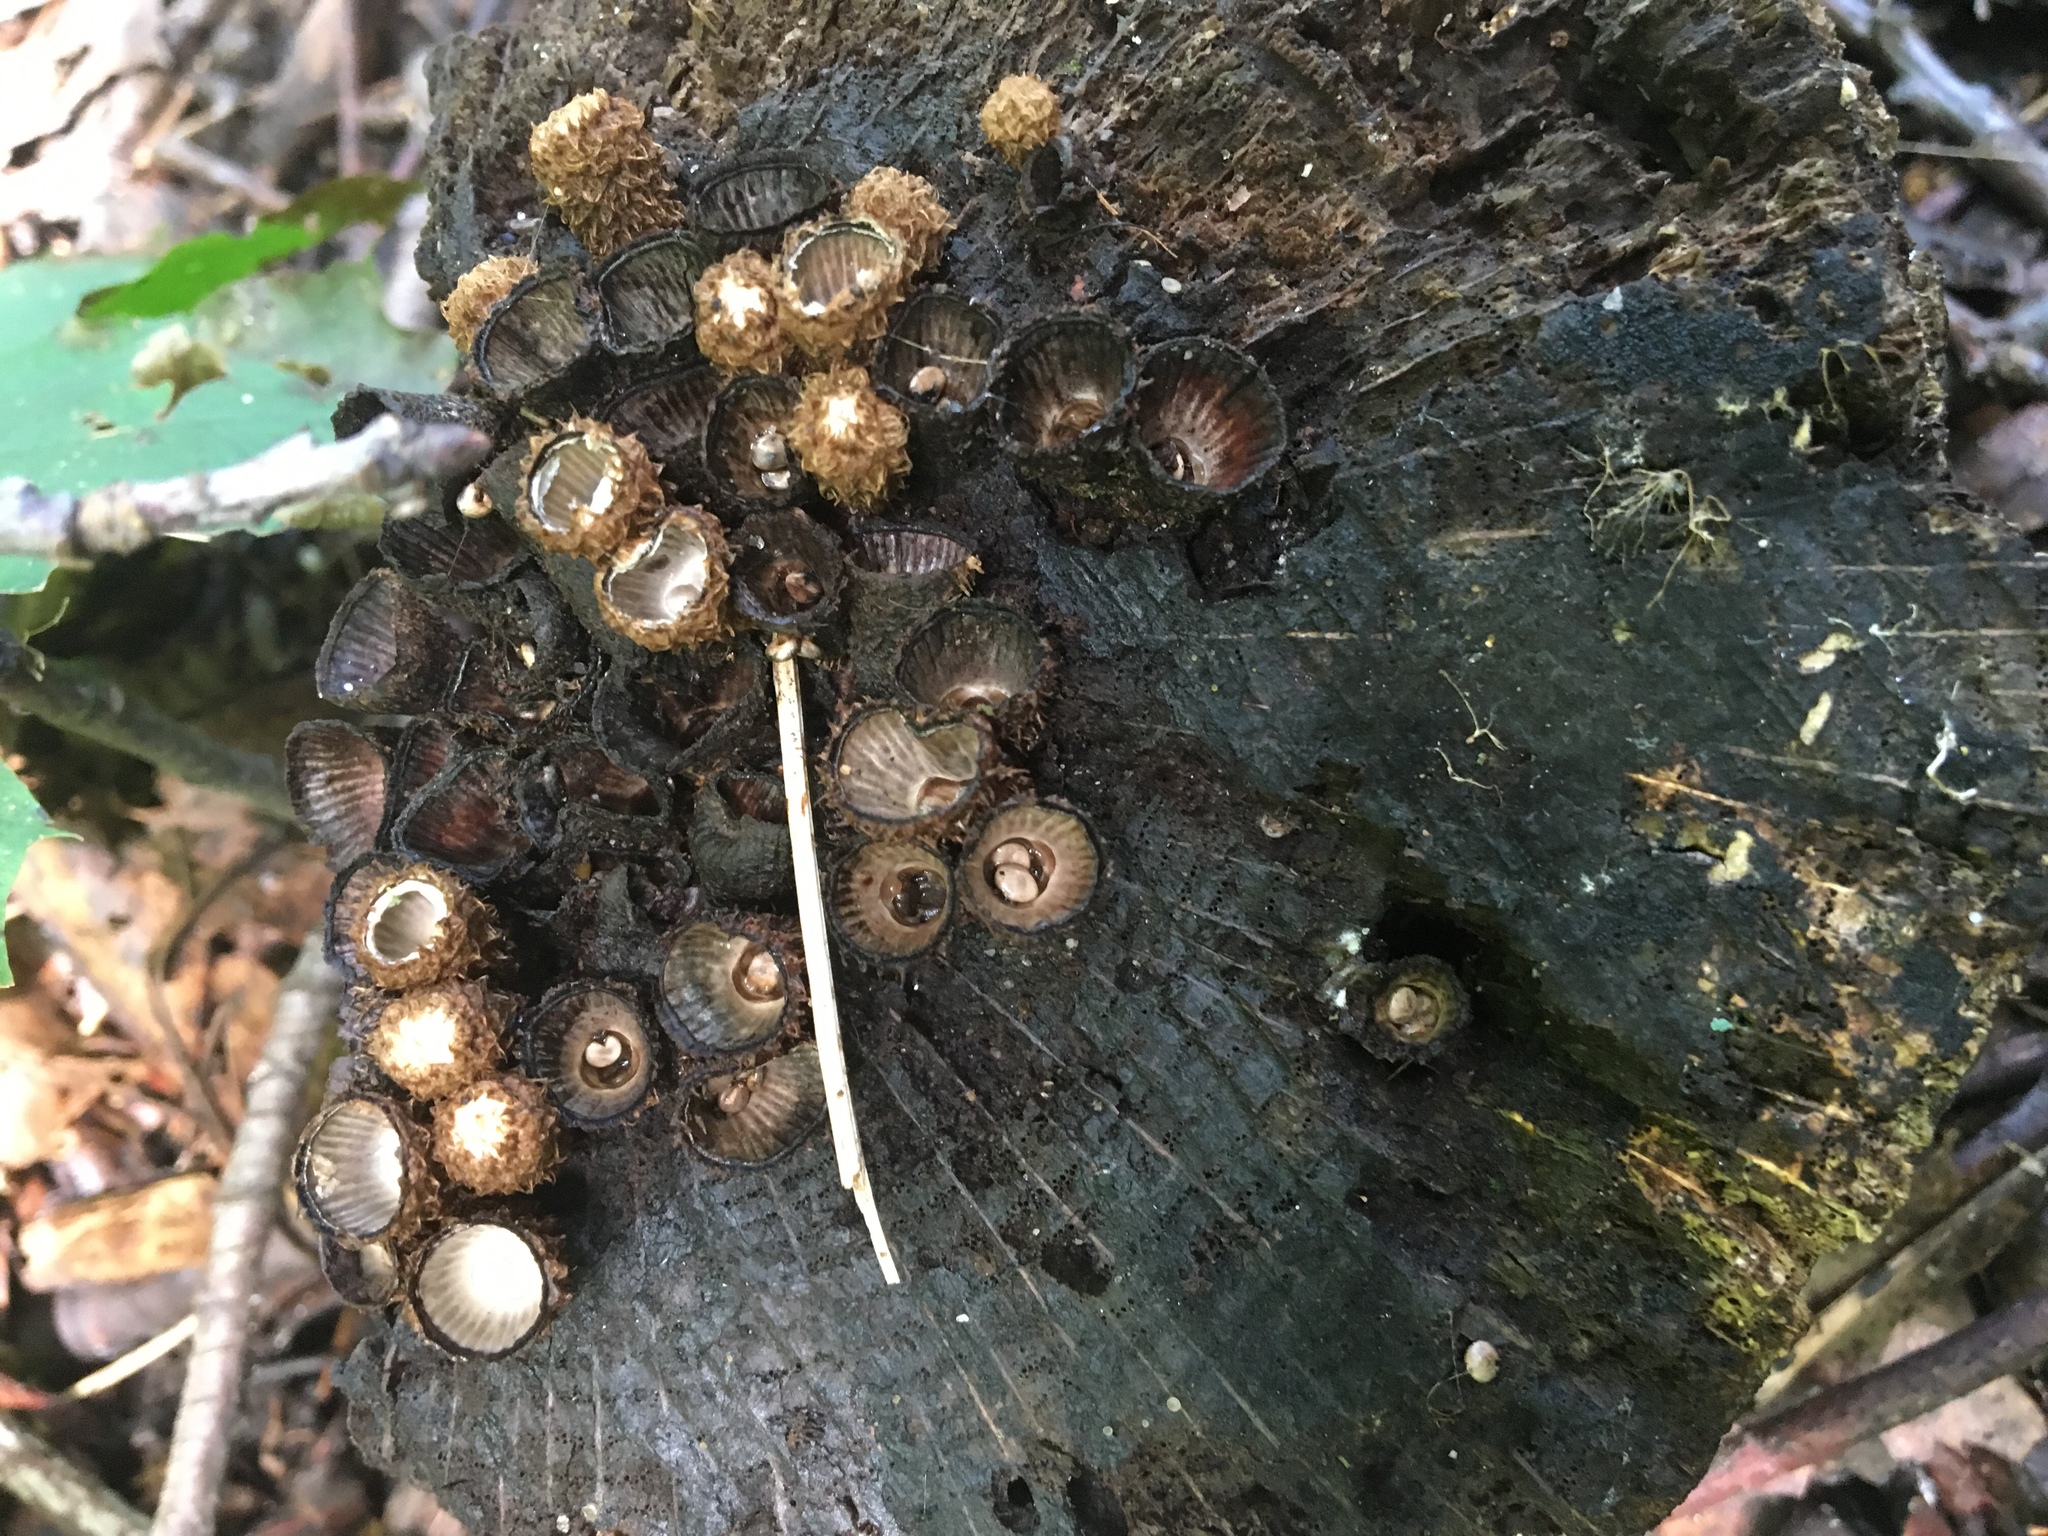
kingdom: Fungi
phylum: Basidiomycota
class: Agaricomycetes
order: Agaricales
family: Agaricaceae
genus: Cyathus
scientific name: Cyathus striatus
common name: Fluted bird's nest
